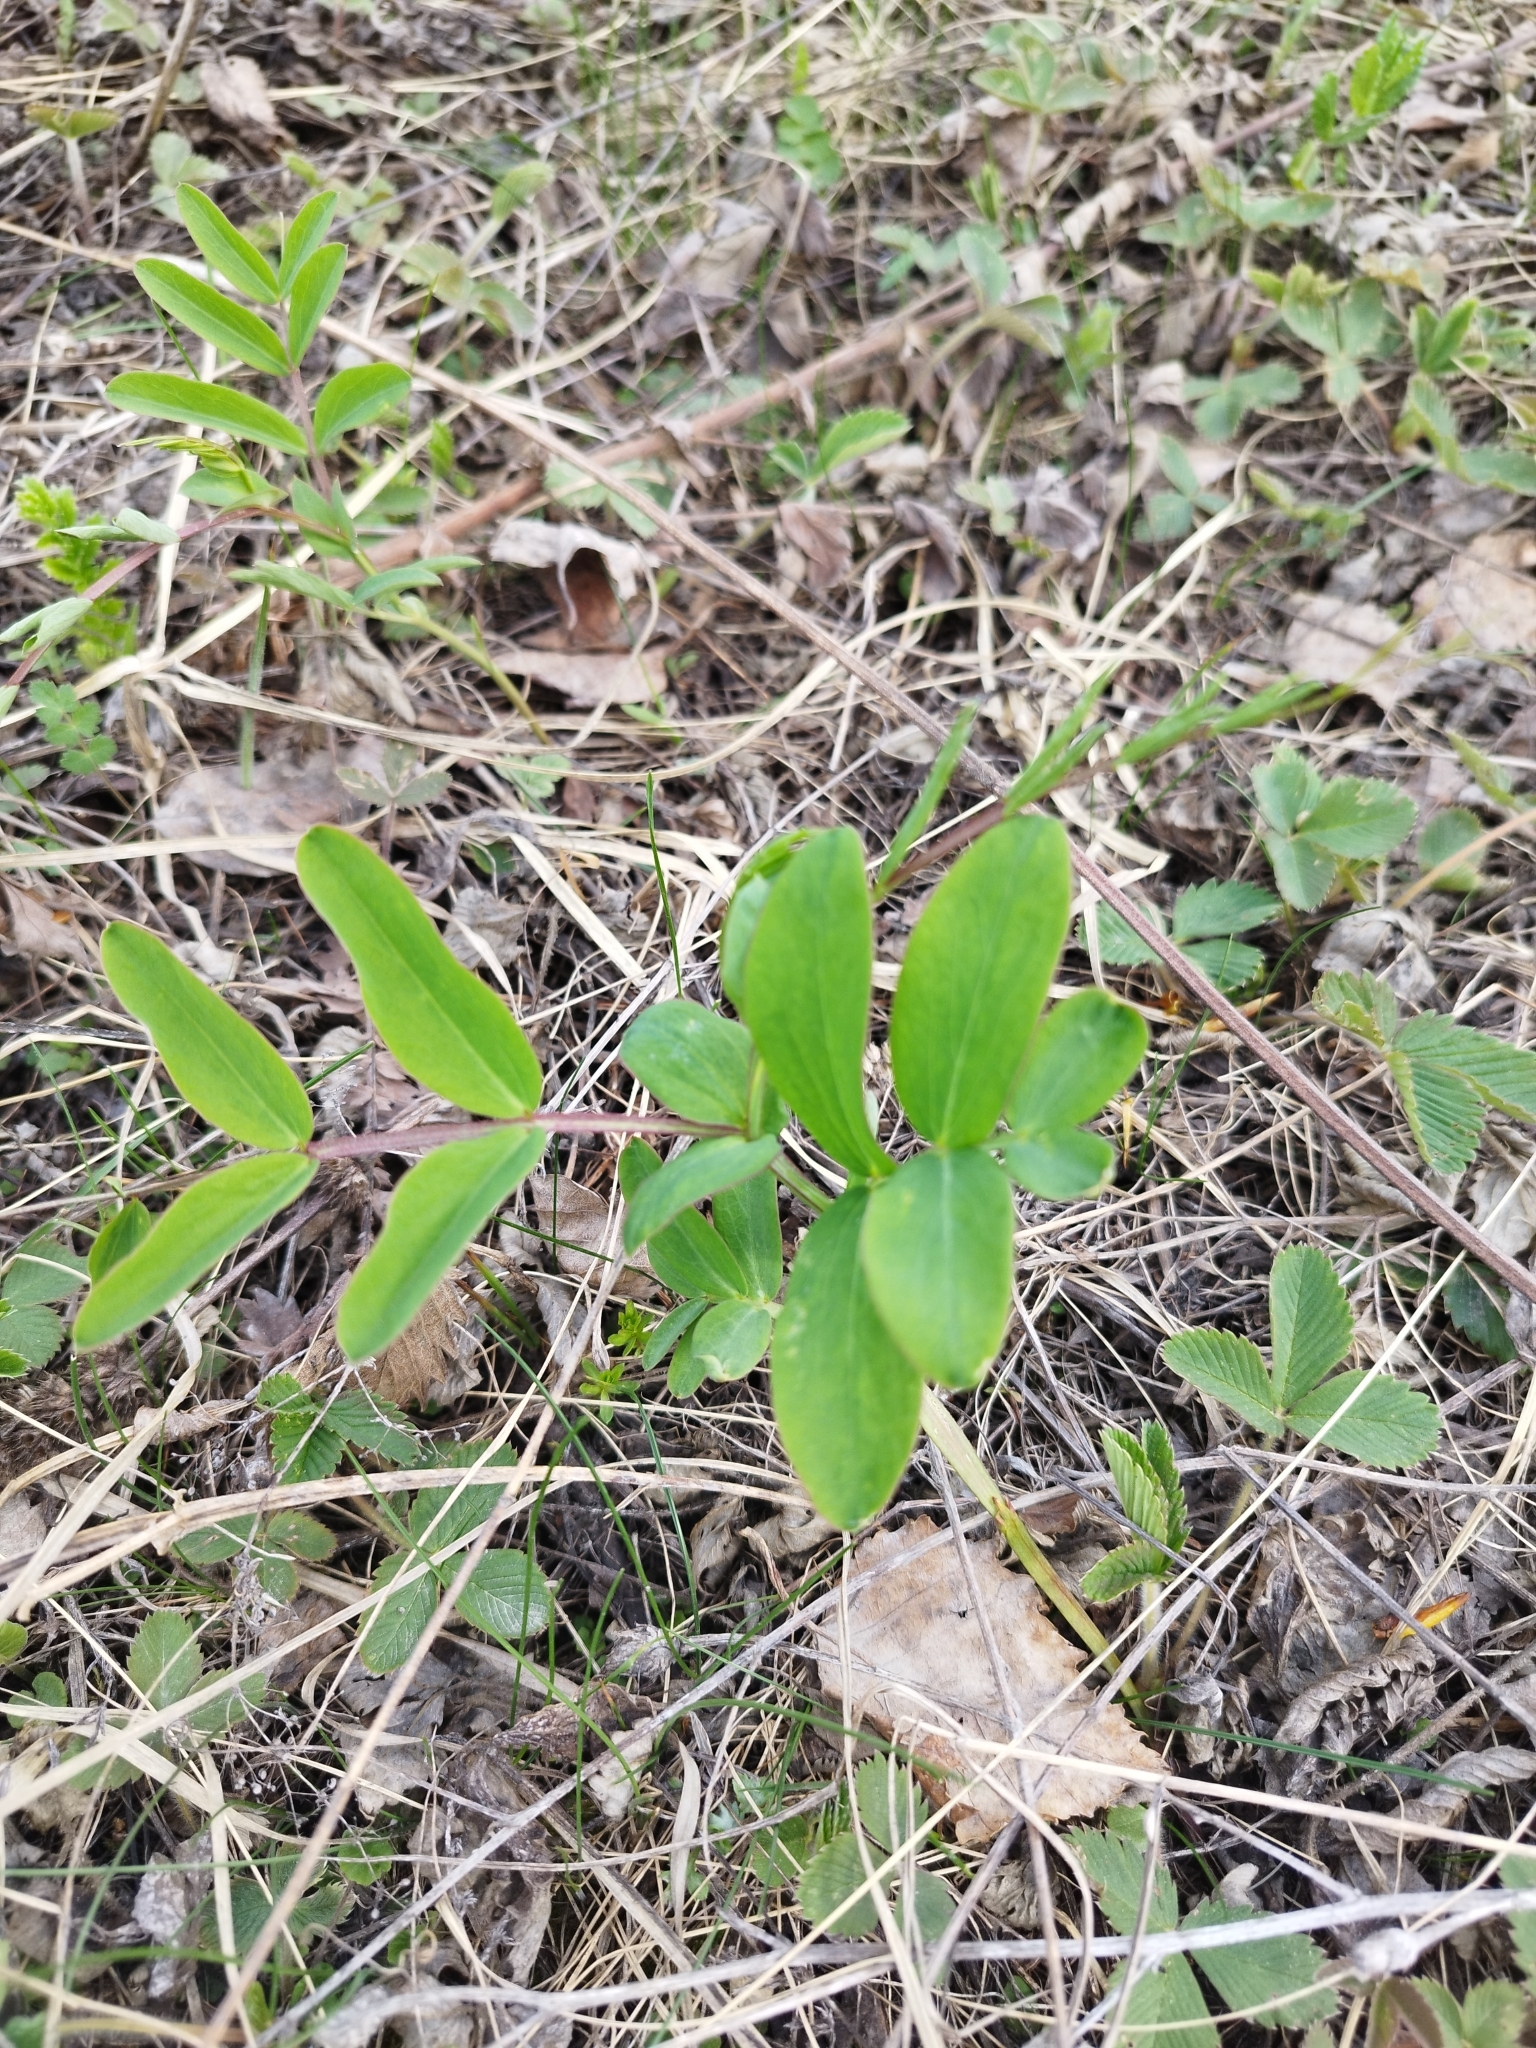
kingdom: Plantae
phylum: Tracheophyta
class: Magnoliopsida
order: Fabales
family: Fabaceae
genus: Lathyrus
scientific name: Lathyrus pisiformis
